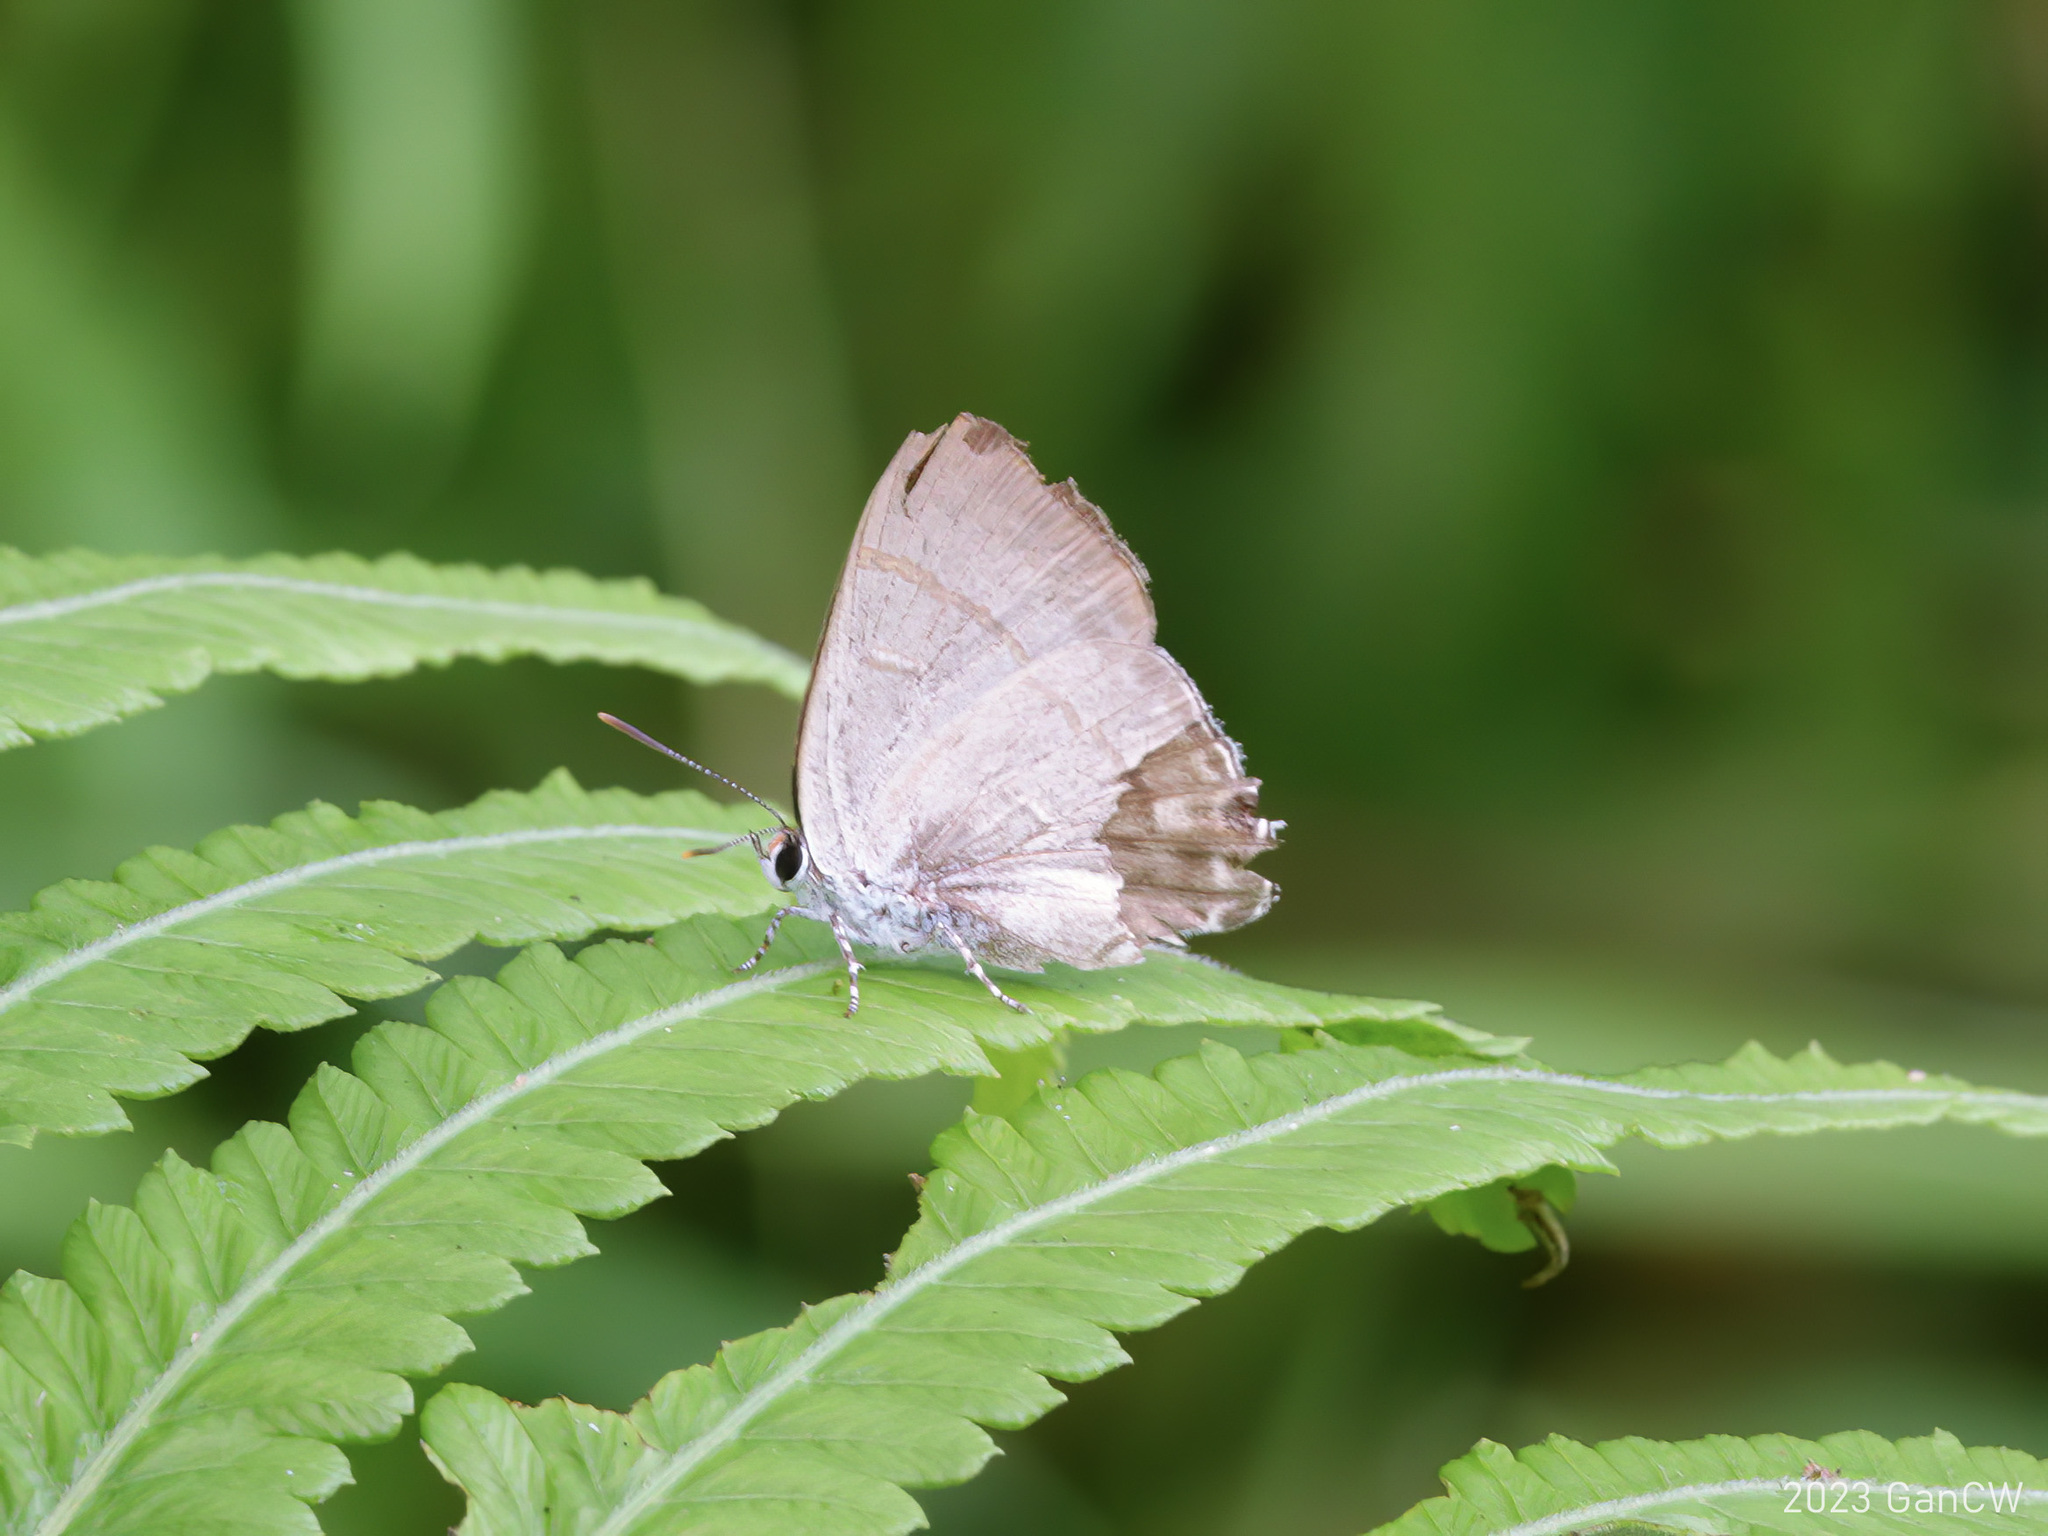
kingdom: Animalia
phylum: Arthropoda
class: Insecta
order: Lepidoptera
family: Lycaenidae
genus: Hypolycaena
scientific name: Hypolycaena erylus
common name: Common tit
